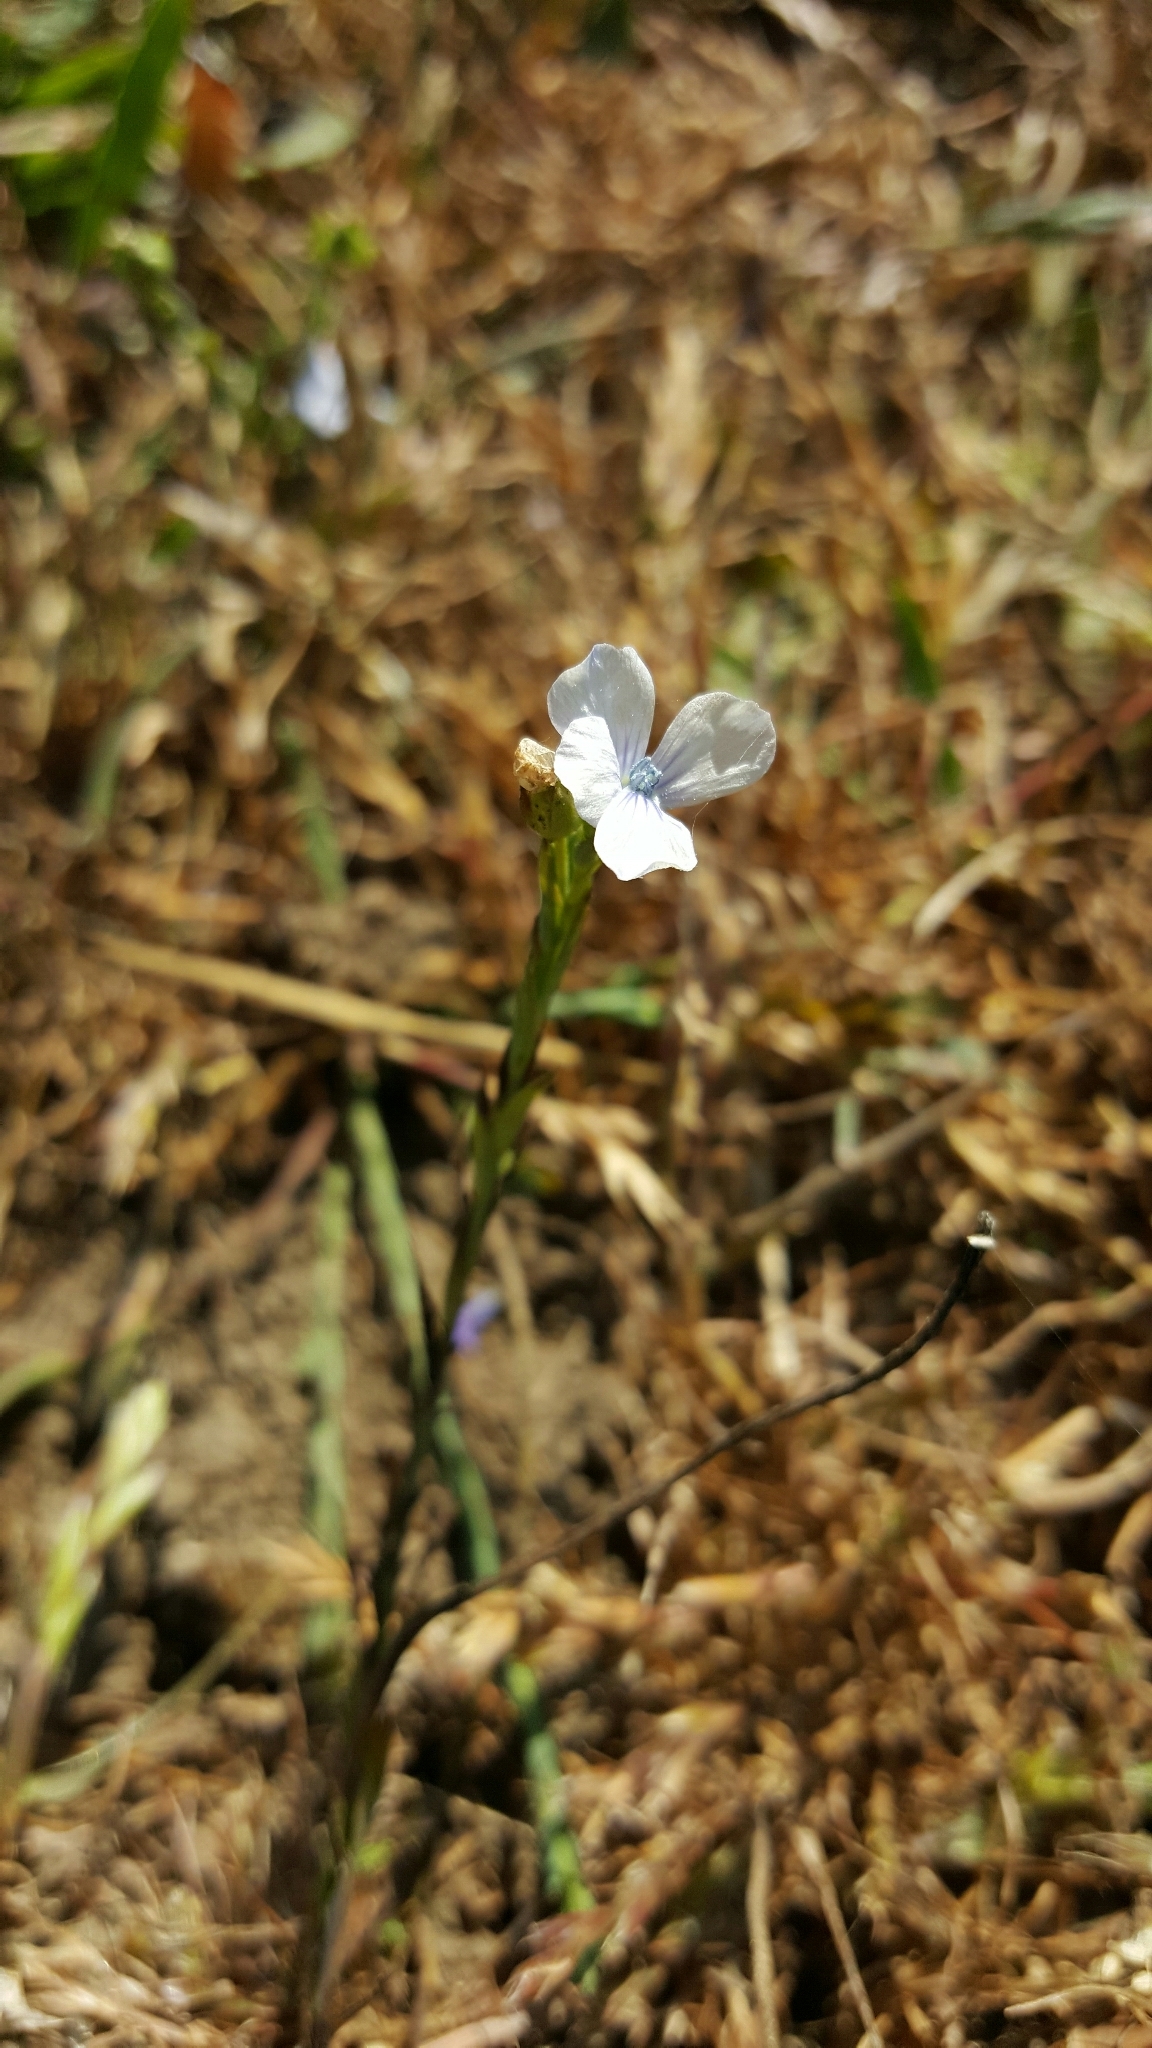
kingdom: Plantae
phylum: Tracheophyta
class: Magnoliopsida
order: Malpighiales
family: Linaceae
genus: Linum
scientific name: Linum bienne
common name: Pale flax
